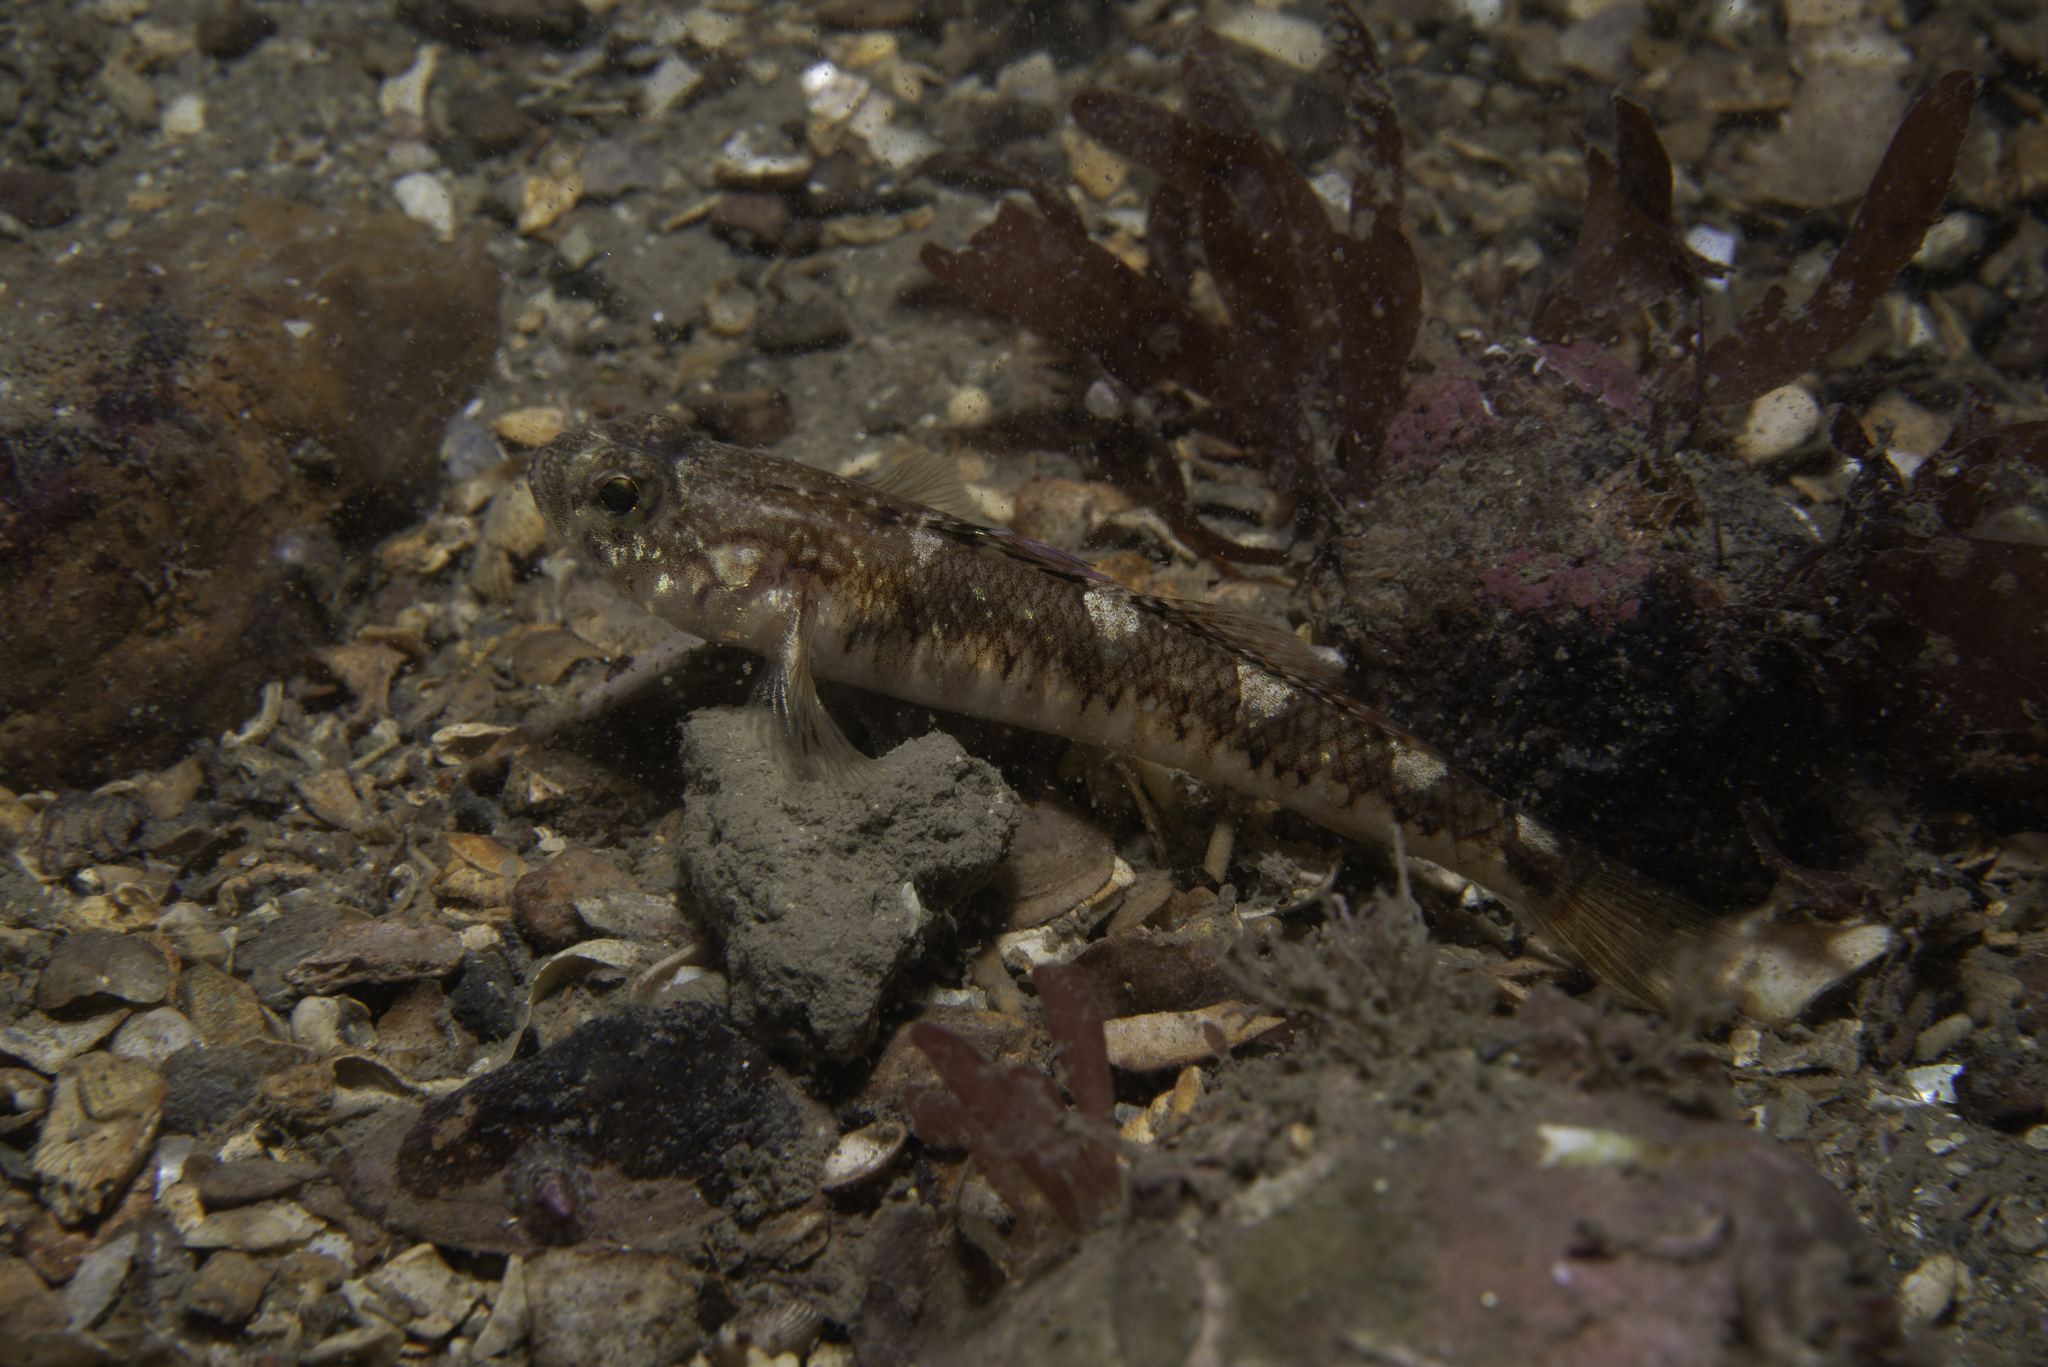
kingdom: Animalia
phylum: Chordata
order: Perciformes
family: Gobiidae
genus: Pomatoschistus
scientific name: Pomatoschistus pictus
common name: Painted goby
